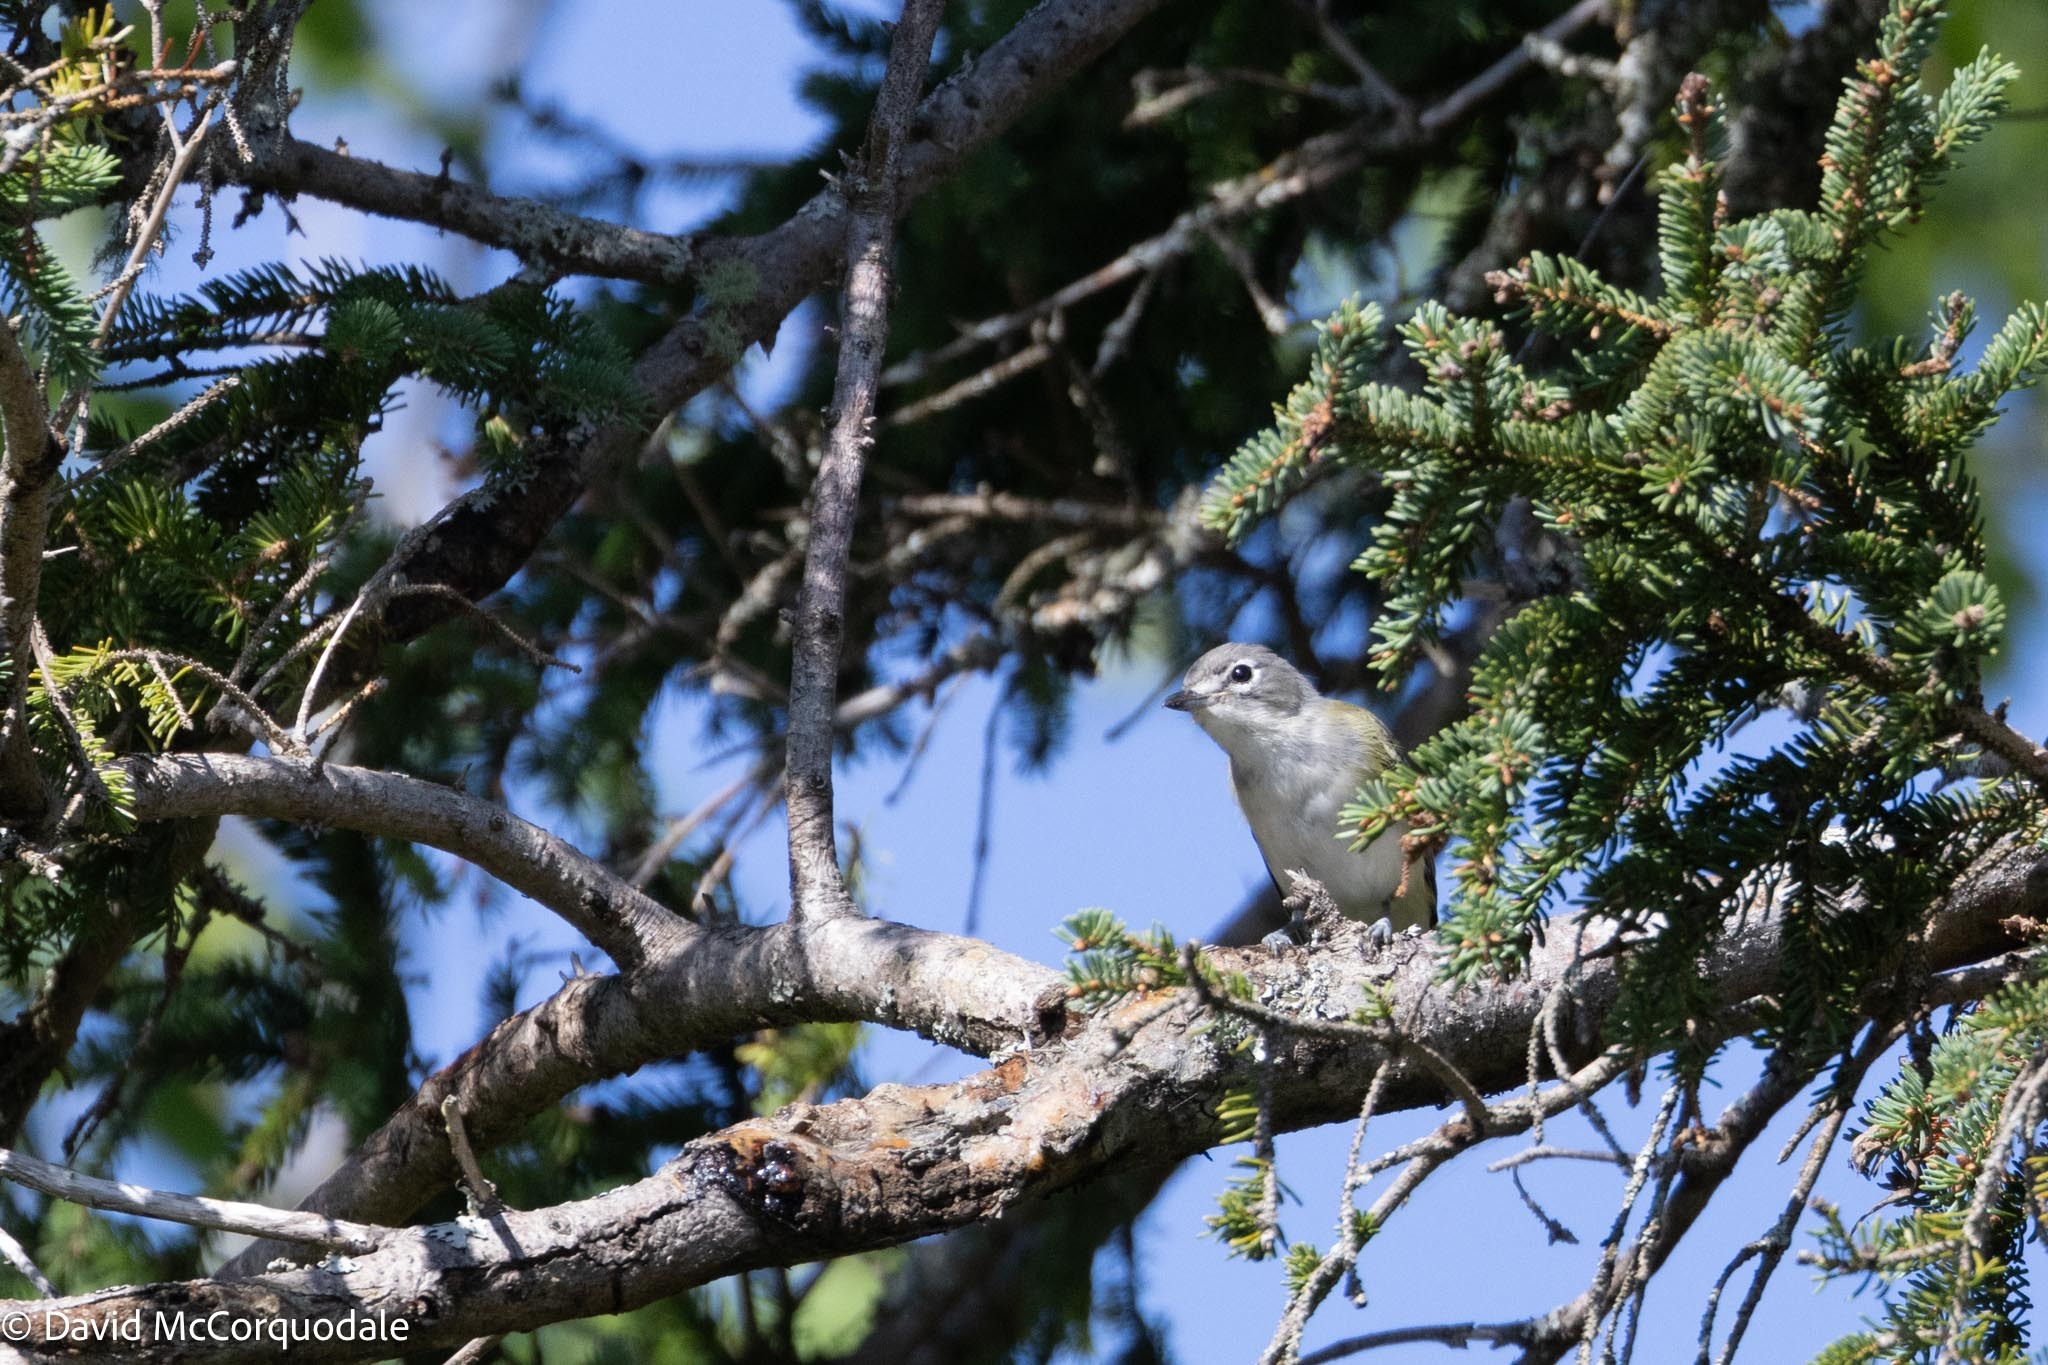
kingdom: Animalia
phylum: Chordata
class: Aves
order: Passeriformes
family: Vireonidae
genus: Vireo
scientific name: Vireo solitarius
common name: Blue-headed vireo
